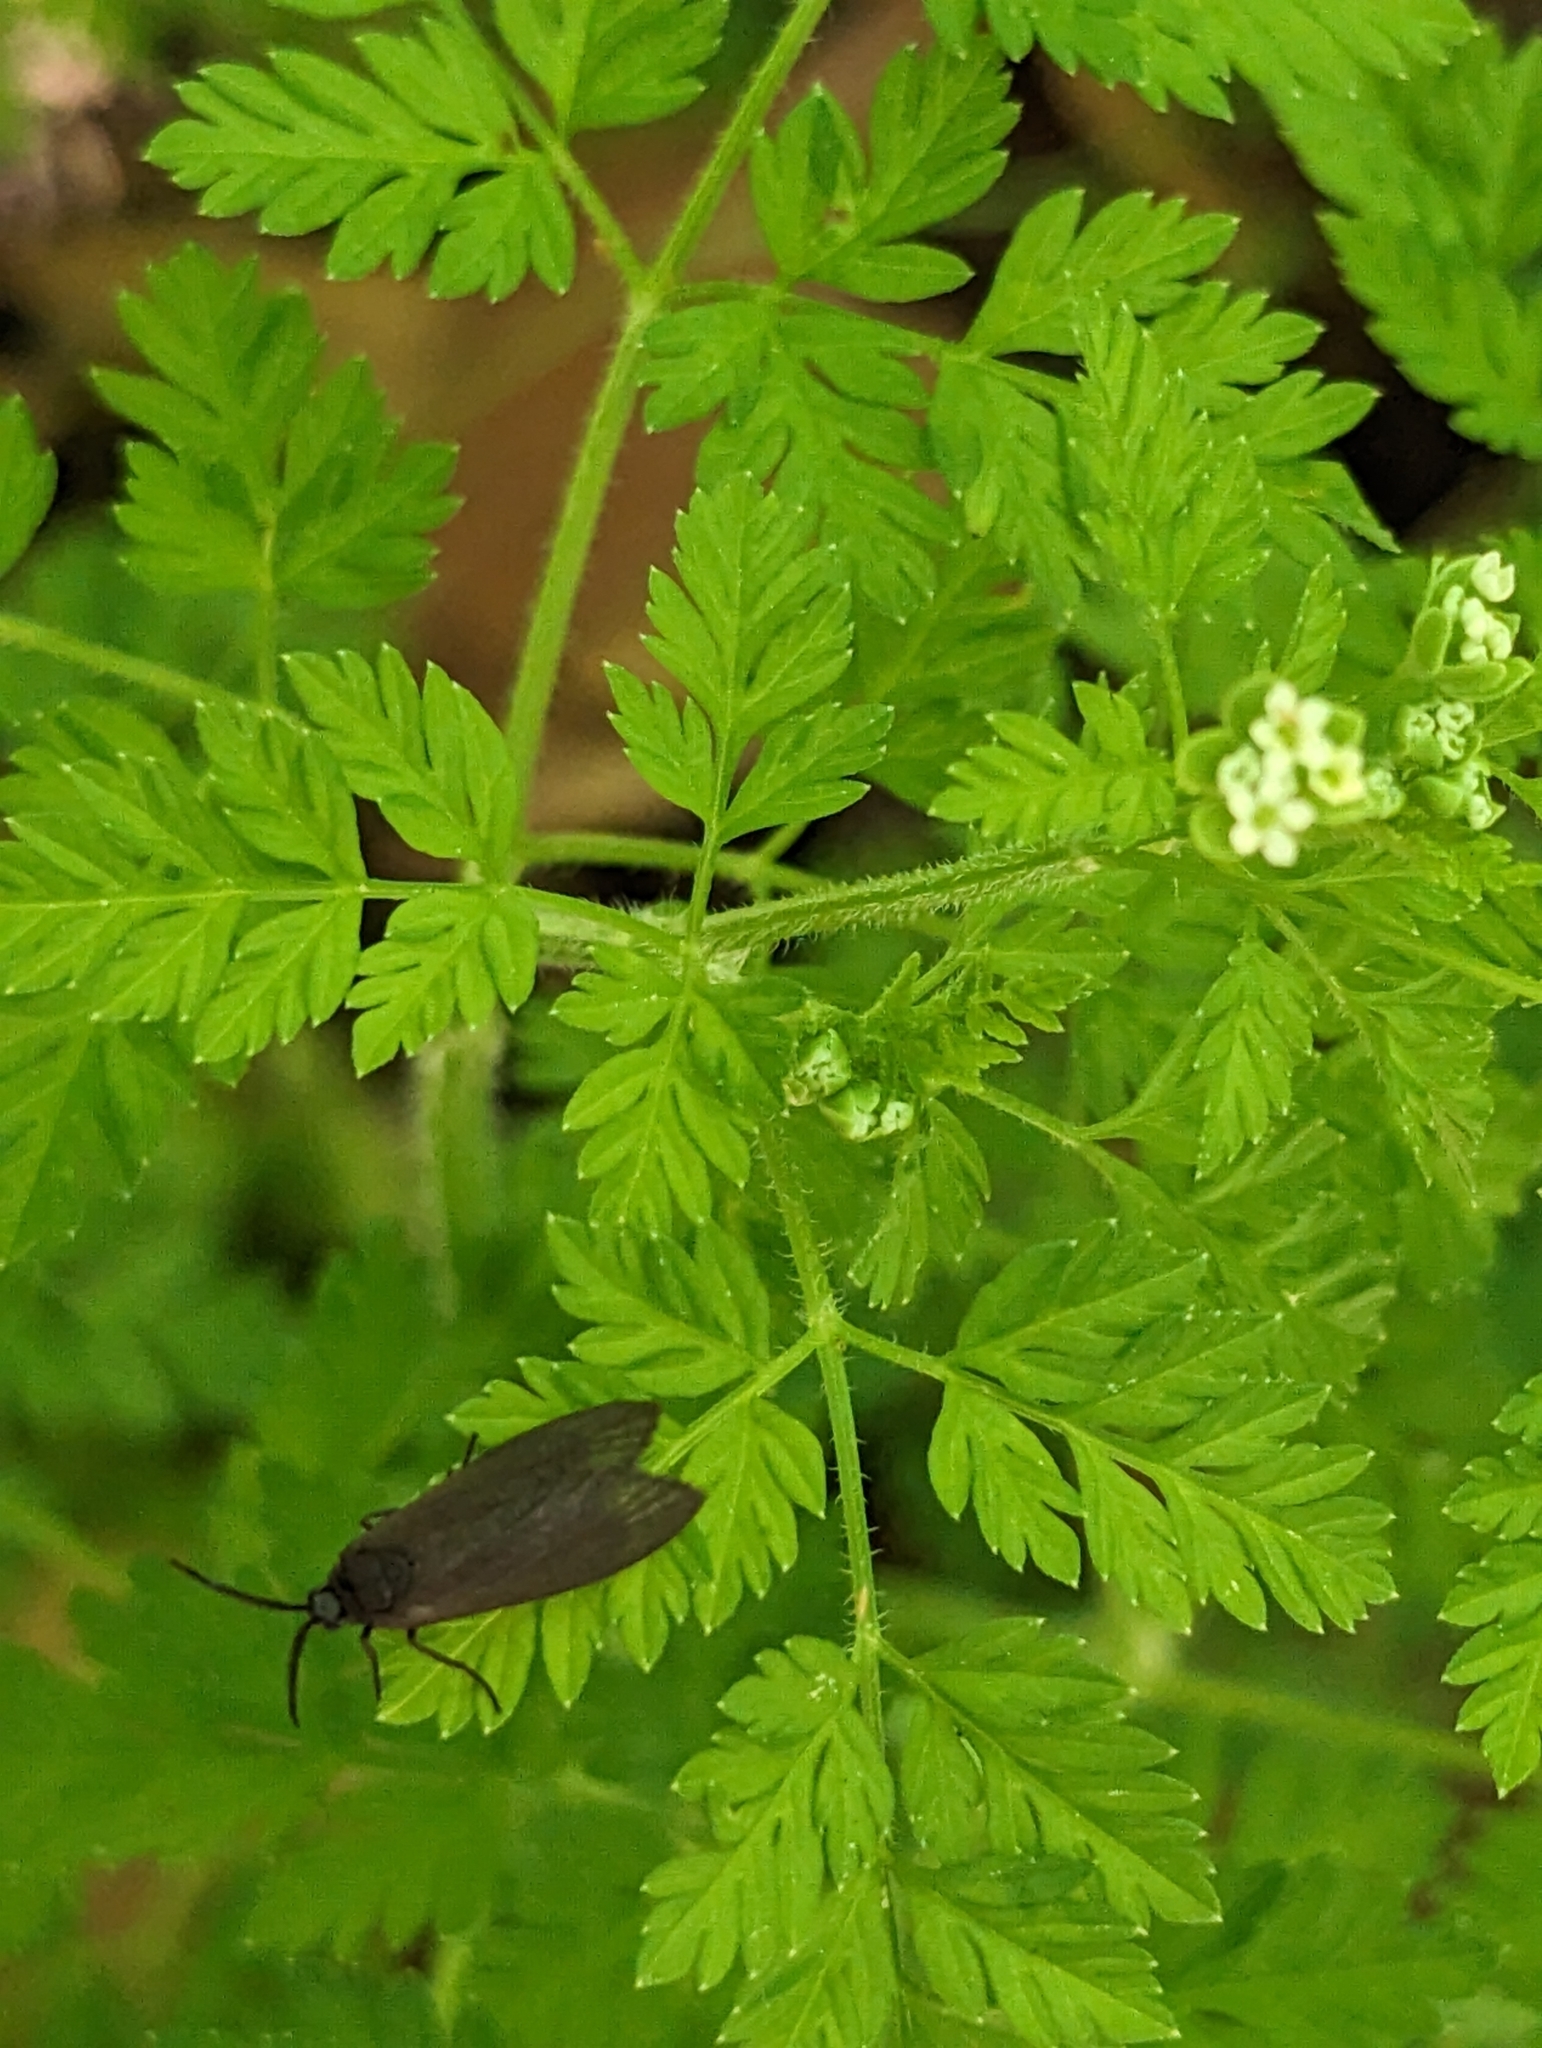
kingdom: Plantae
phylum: Tracheophyta
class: Magnoliopsida
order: Apiales
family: Apiaceae
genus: Chaerophyllum
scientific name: Chaerophyllum tainturieri
